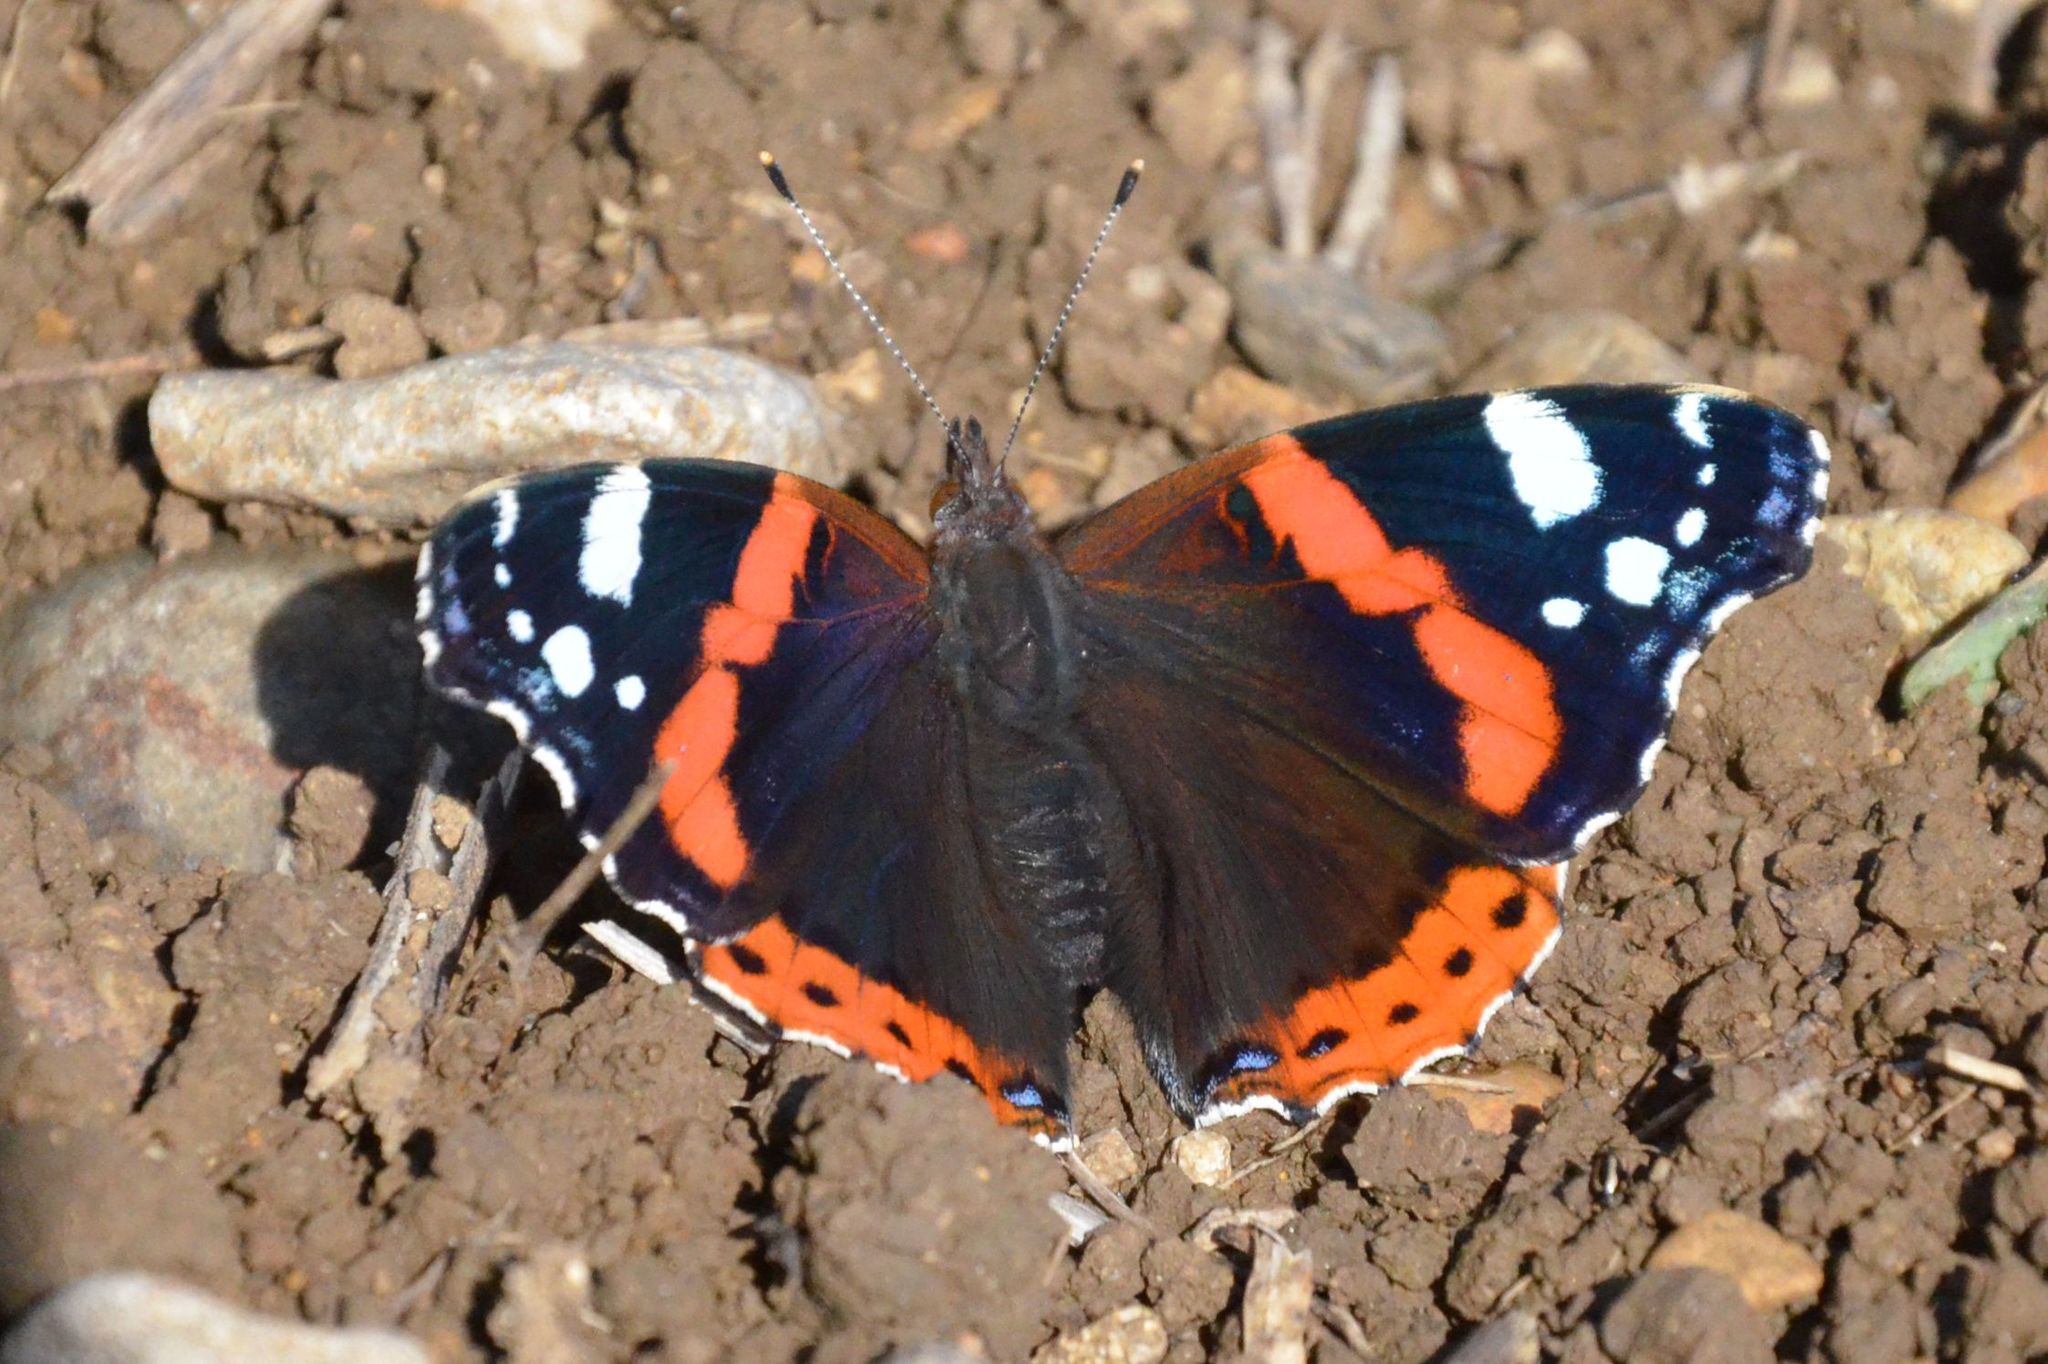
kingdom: Animalia
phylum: Arthropoda
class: Insecta
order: Lepidoptera
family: Nymphalidae
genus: Vanessa
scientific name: Vanessa atalanta
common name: Red admiral
